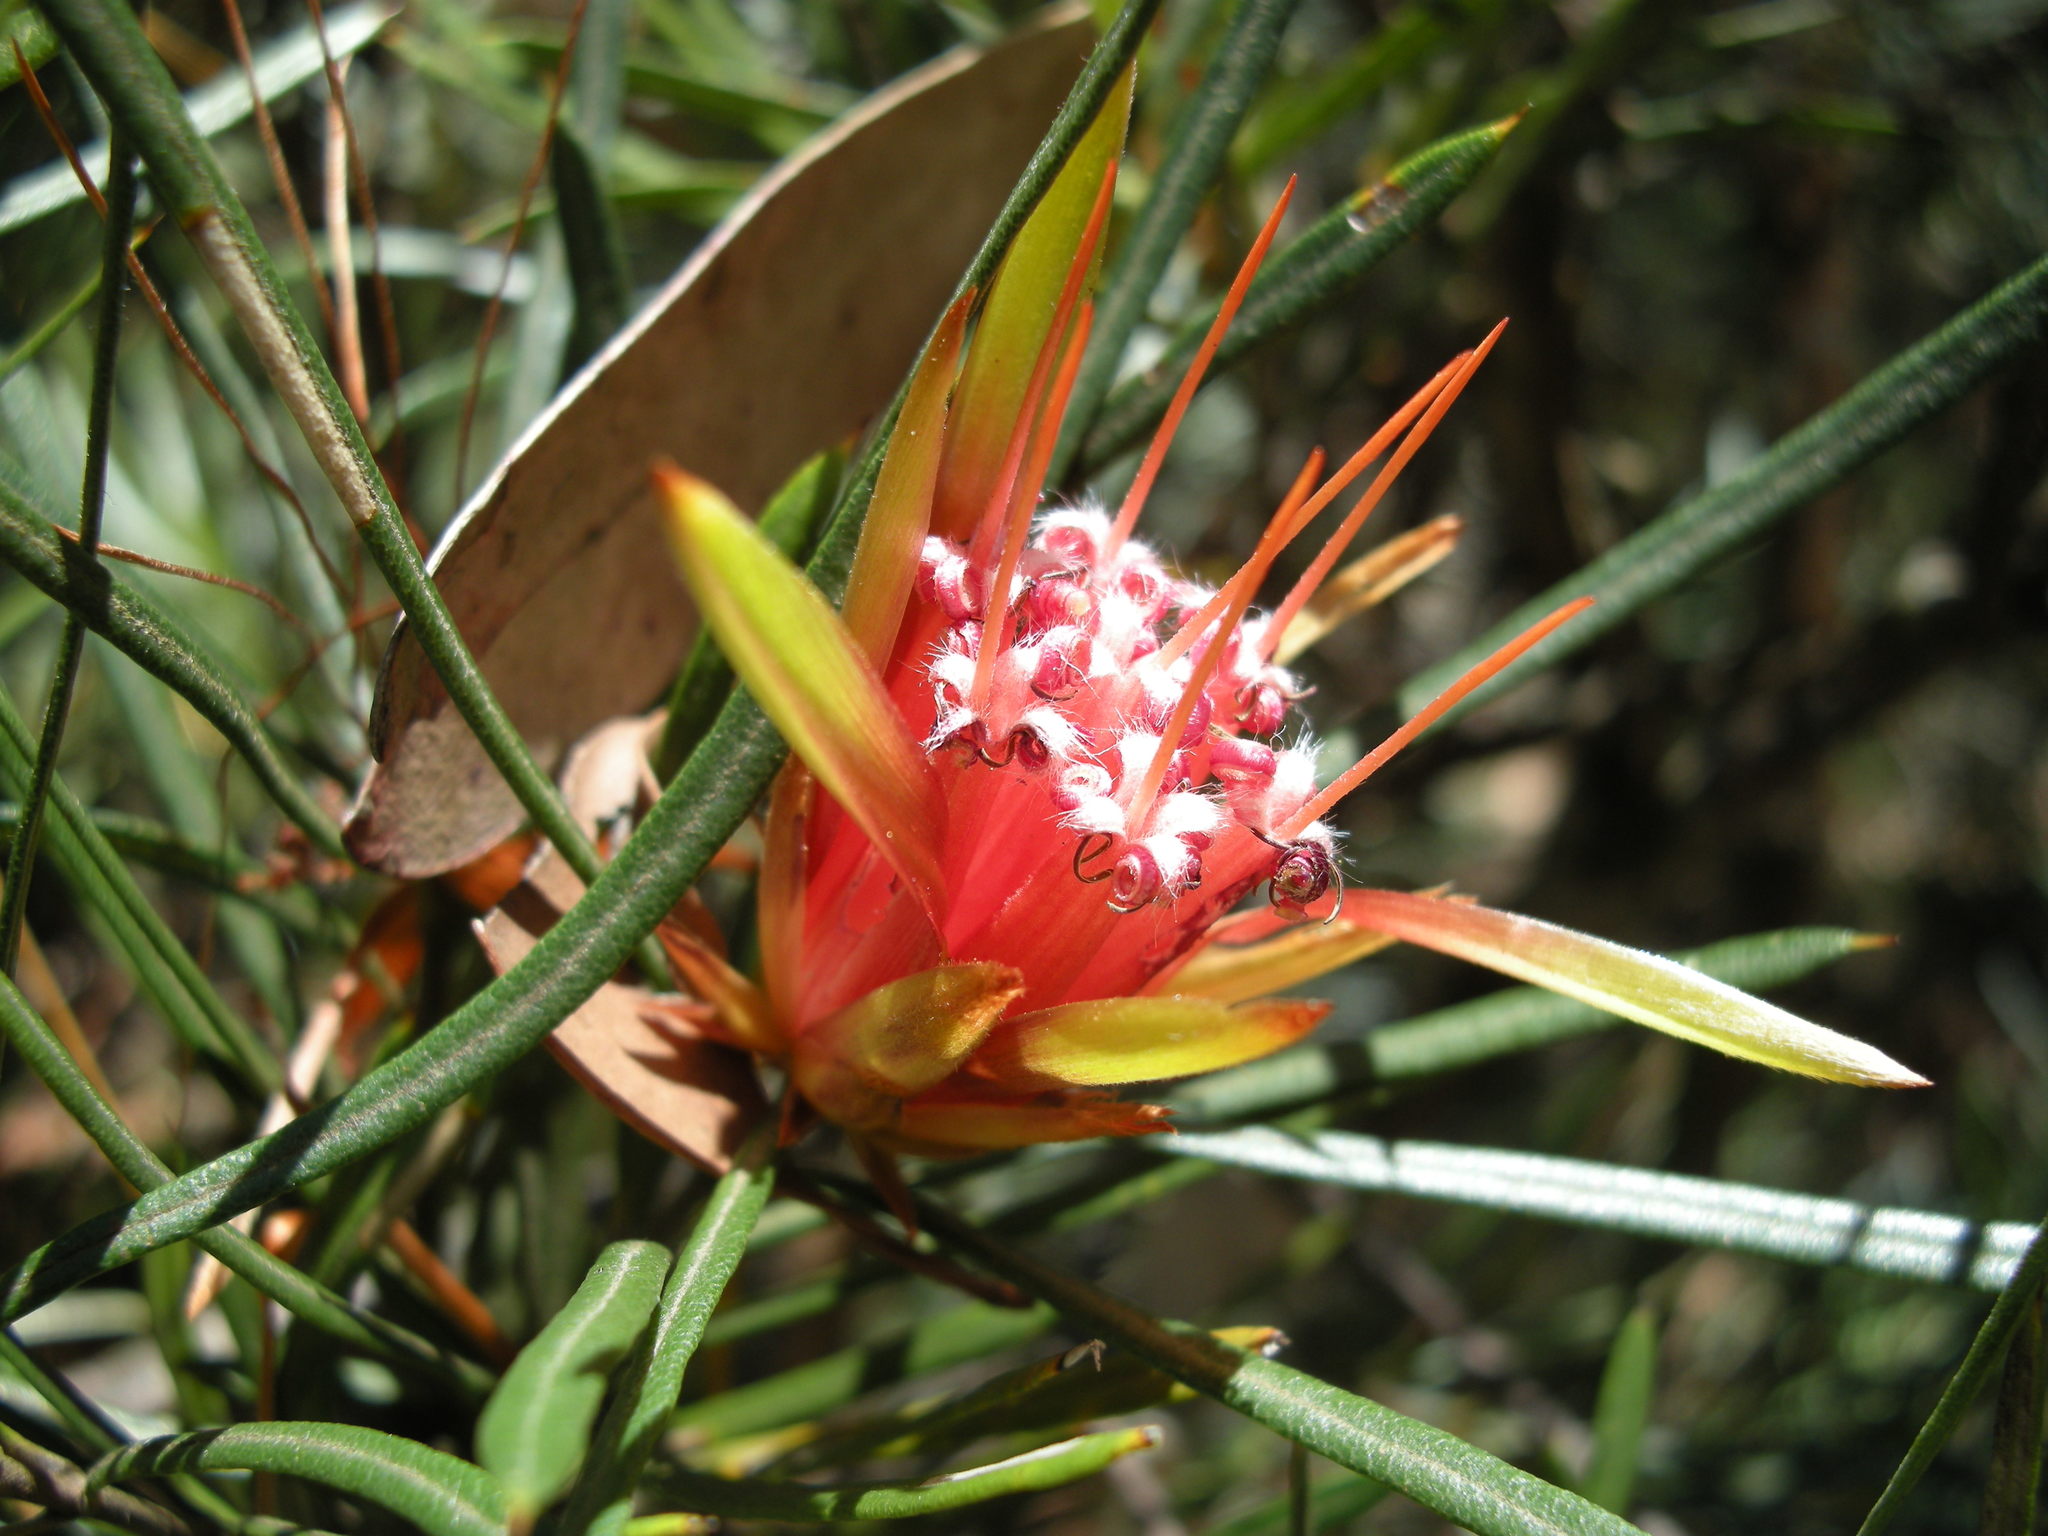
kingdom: Plantae
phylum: Tracheophyta
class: Magnoliopsida
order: Proteales
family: Proteaceae
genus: Lambertia
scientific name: Lambertia formosa
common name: Mountain-devil
